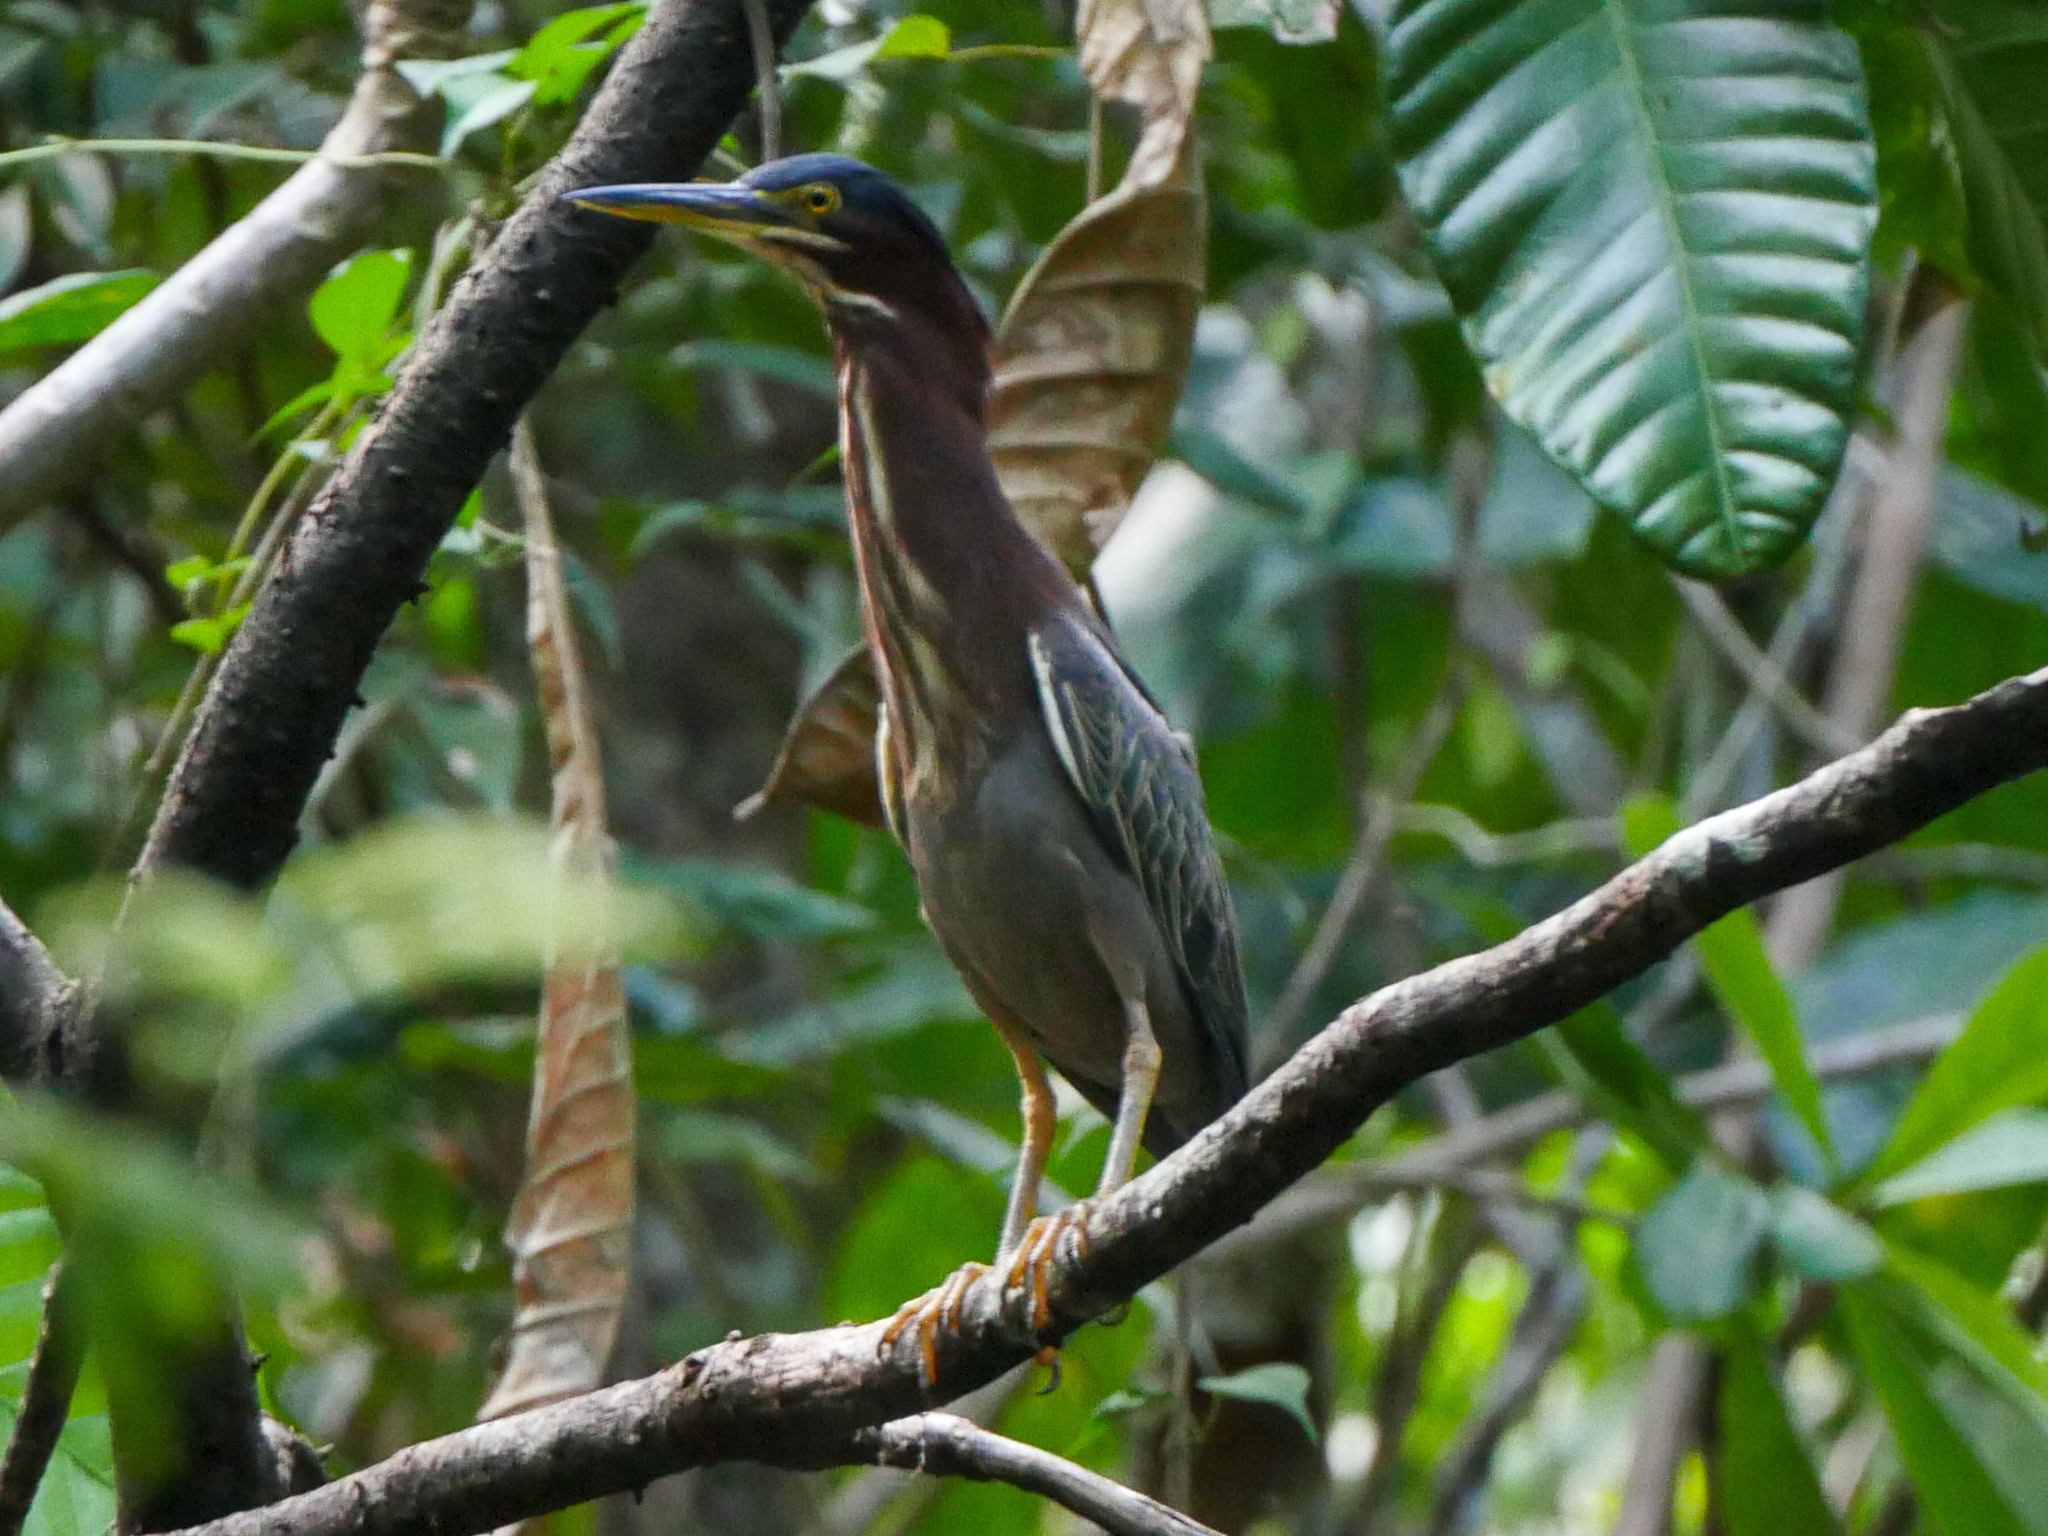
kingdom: Animalia
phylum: Chordata
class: Aves
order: Pelecaniformes
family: Ardeidae
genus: Butorides
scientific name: Butorides virescens
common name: Green heron
